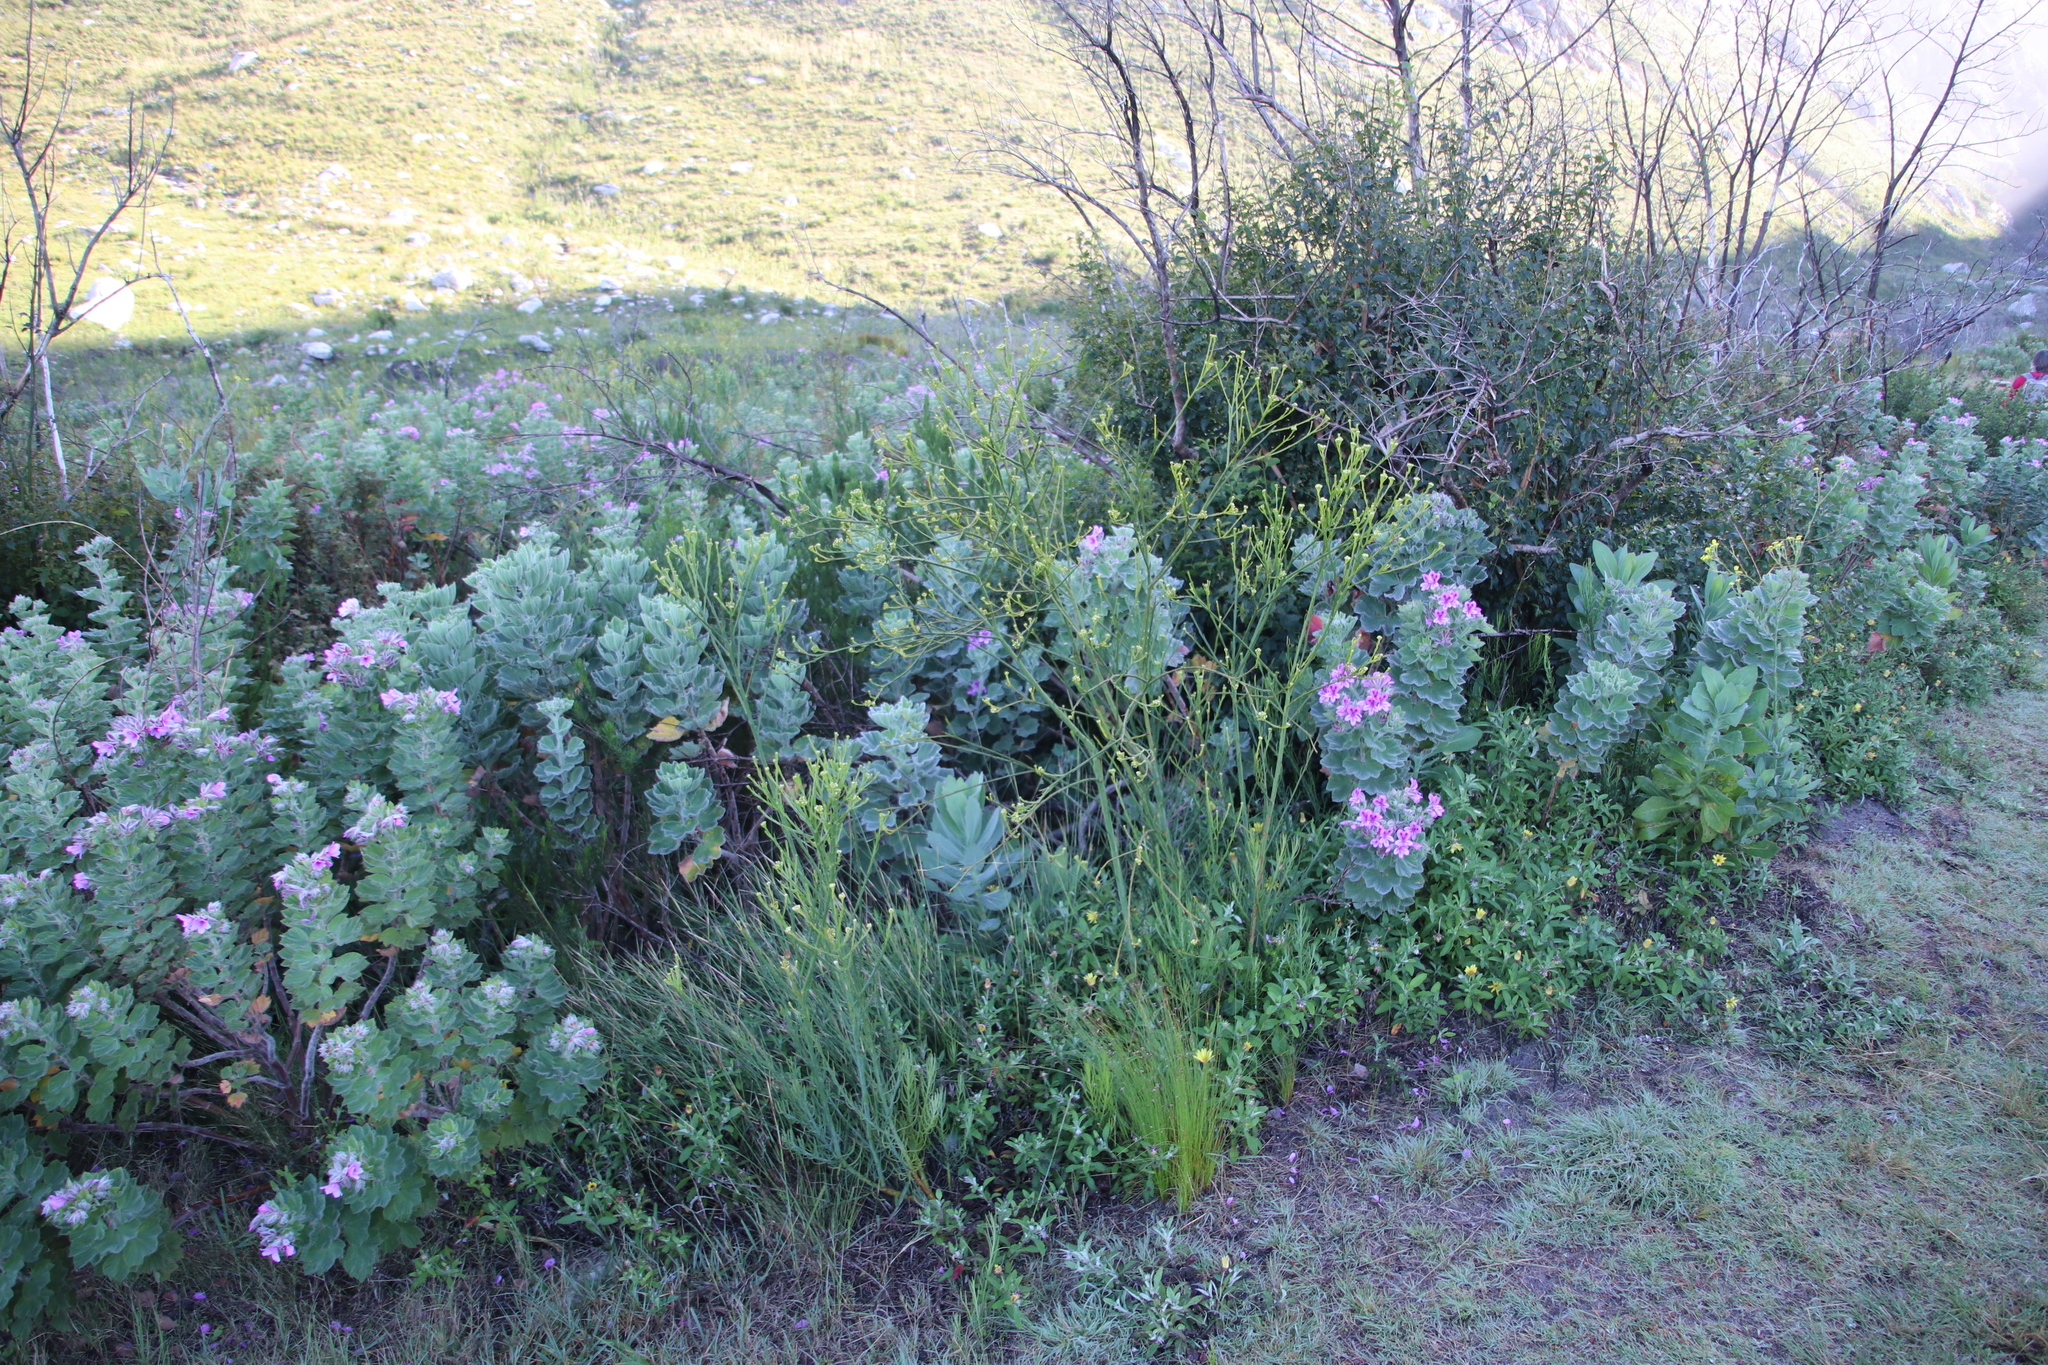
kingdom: Plantae
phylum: Tracheophyta
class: Magnoliopsida
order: Geraniales
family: Geraniaceae
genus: Pelargonium
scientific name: Pelargonium cucullatum
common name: Tree pelargonium
